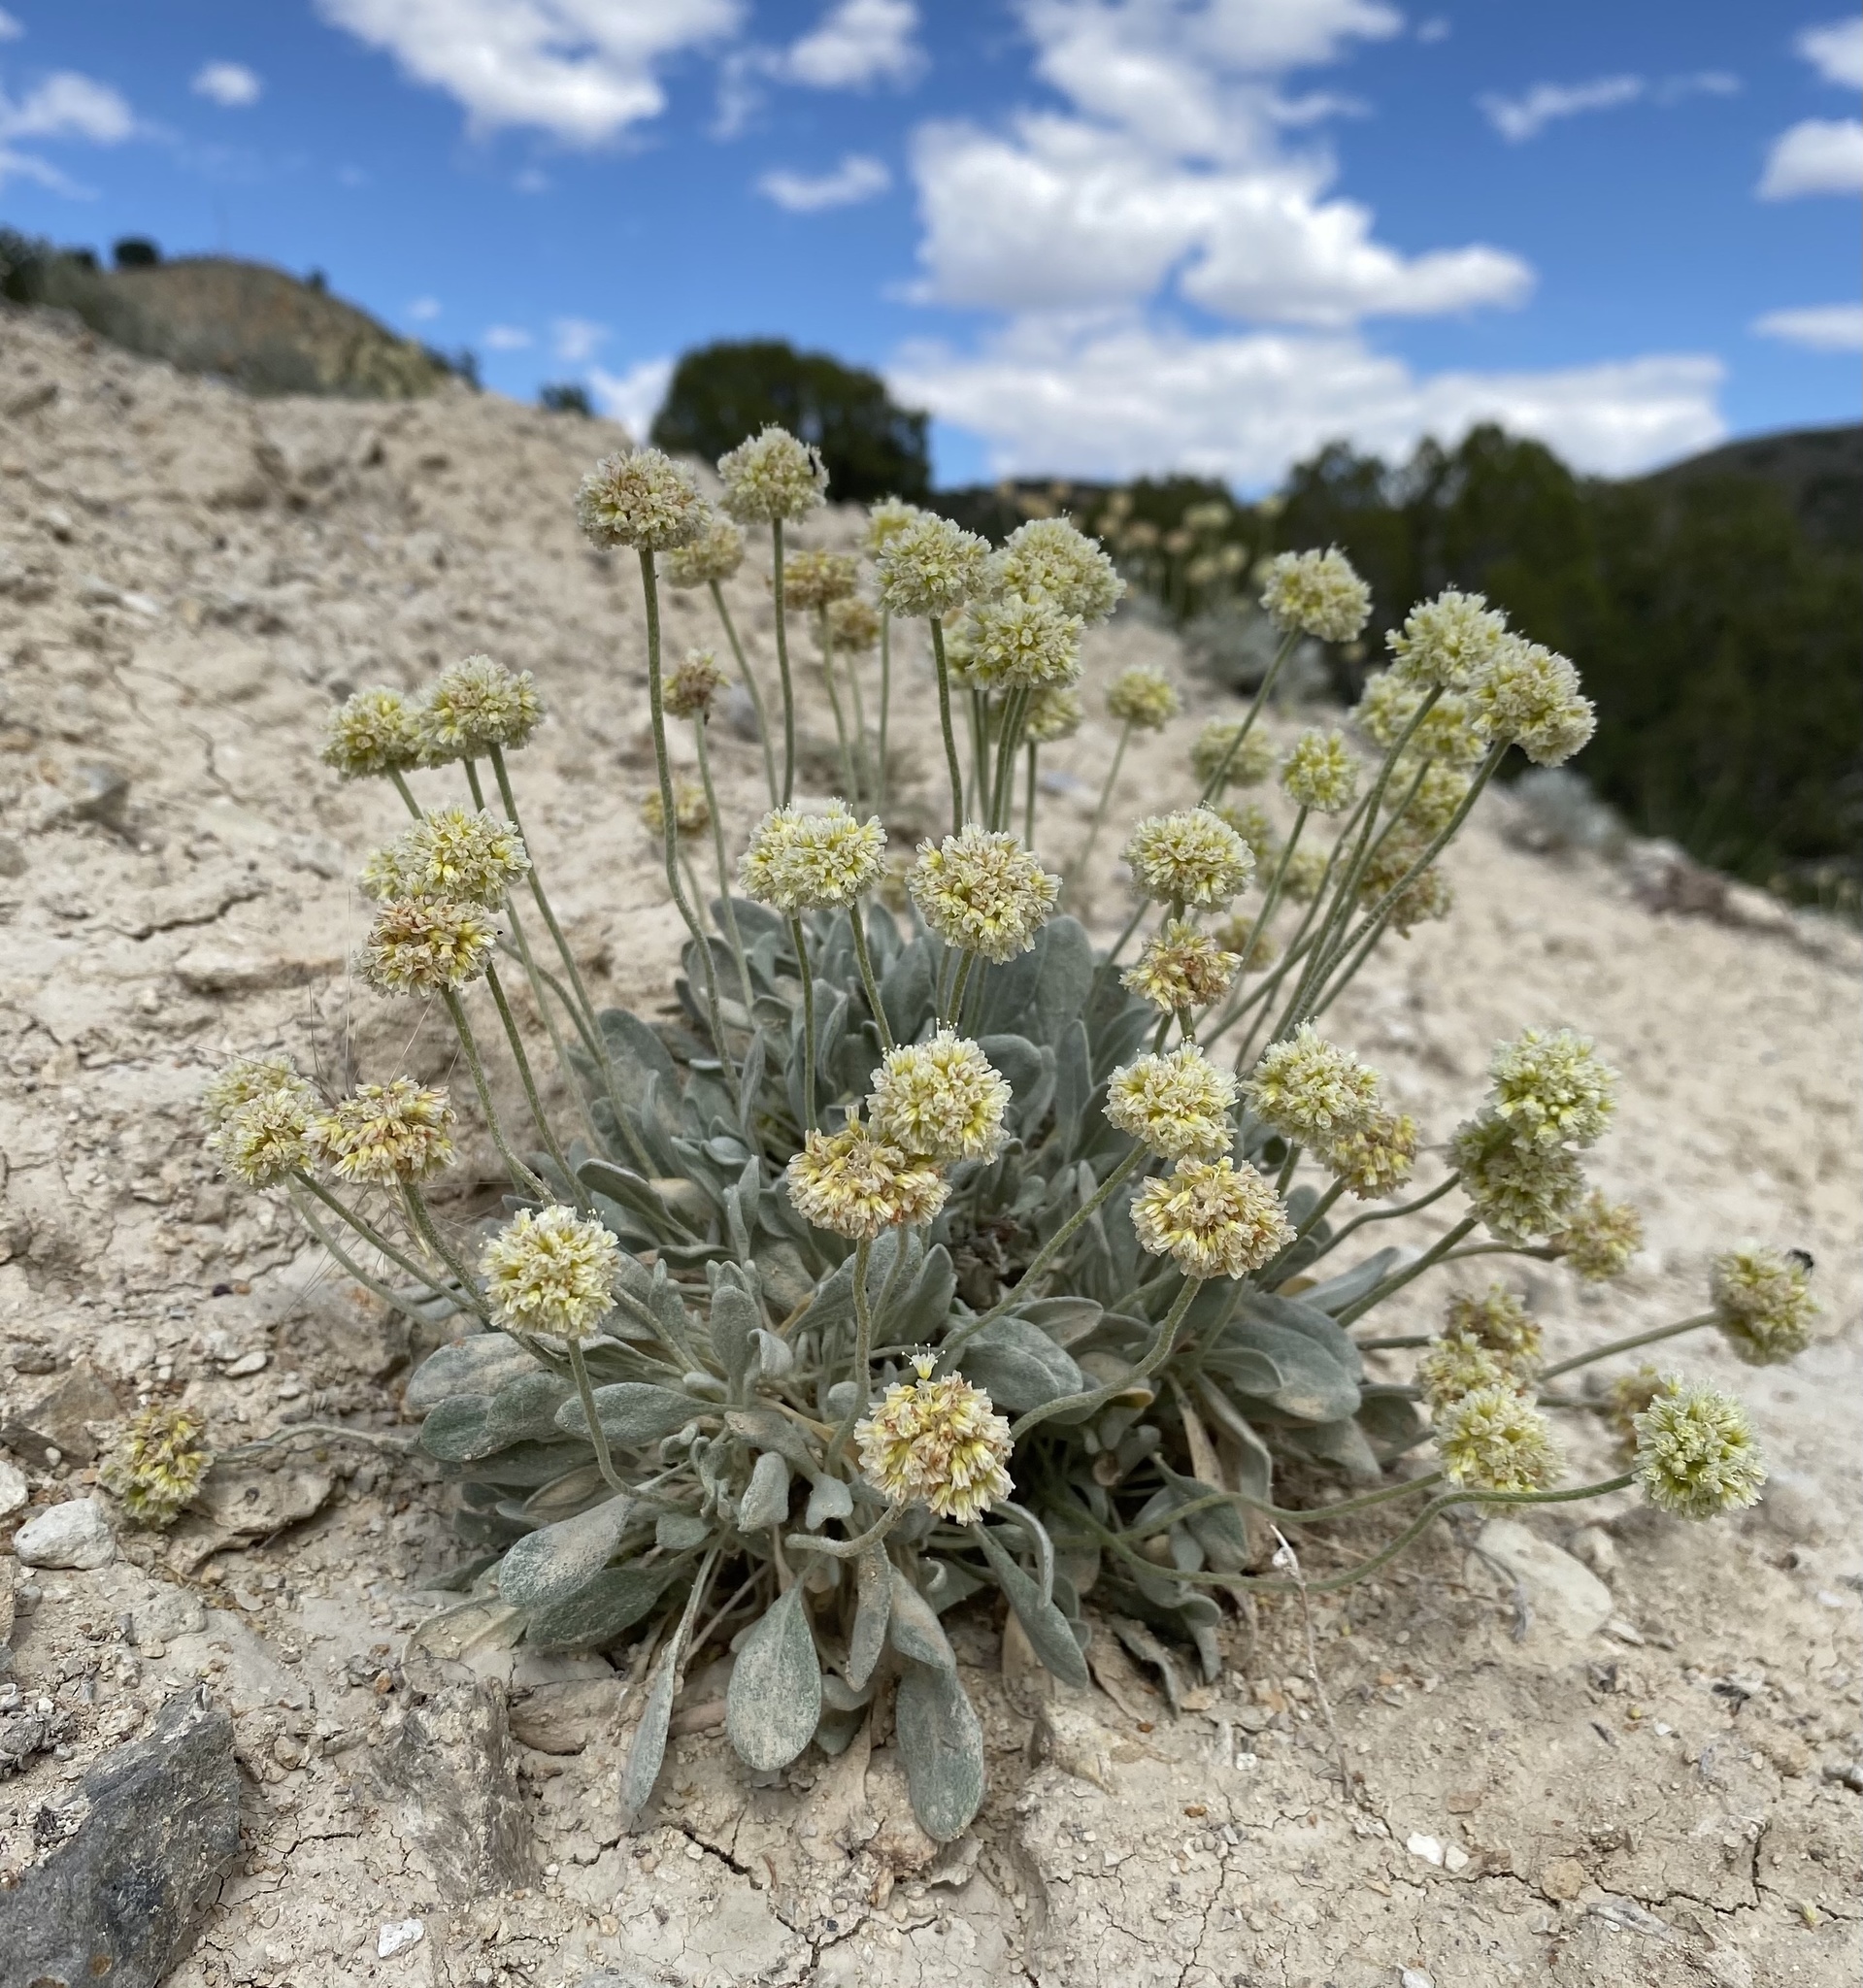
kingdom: Plantae
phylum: Tracheophyta
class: Magnoliopsida
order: Caryophyllales
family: Polygonaceae
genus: Eriogonum
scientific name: Eriogonum anemophilum
